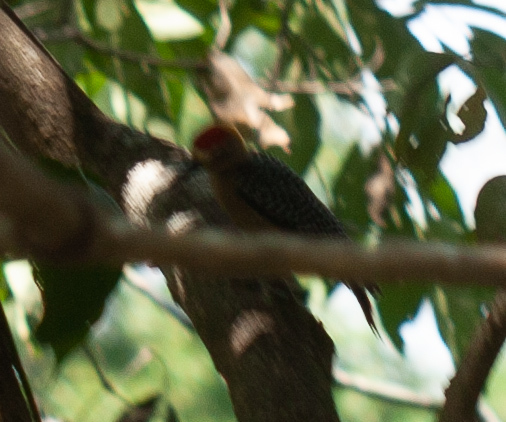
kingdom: Animalia
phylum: Chordata
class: Aves
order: Piciformes
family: Picidae
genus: Melanerpes
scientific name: Melanerpes hoffmannii
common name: Hoffmann's woodpecker
